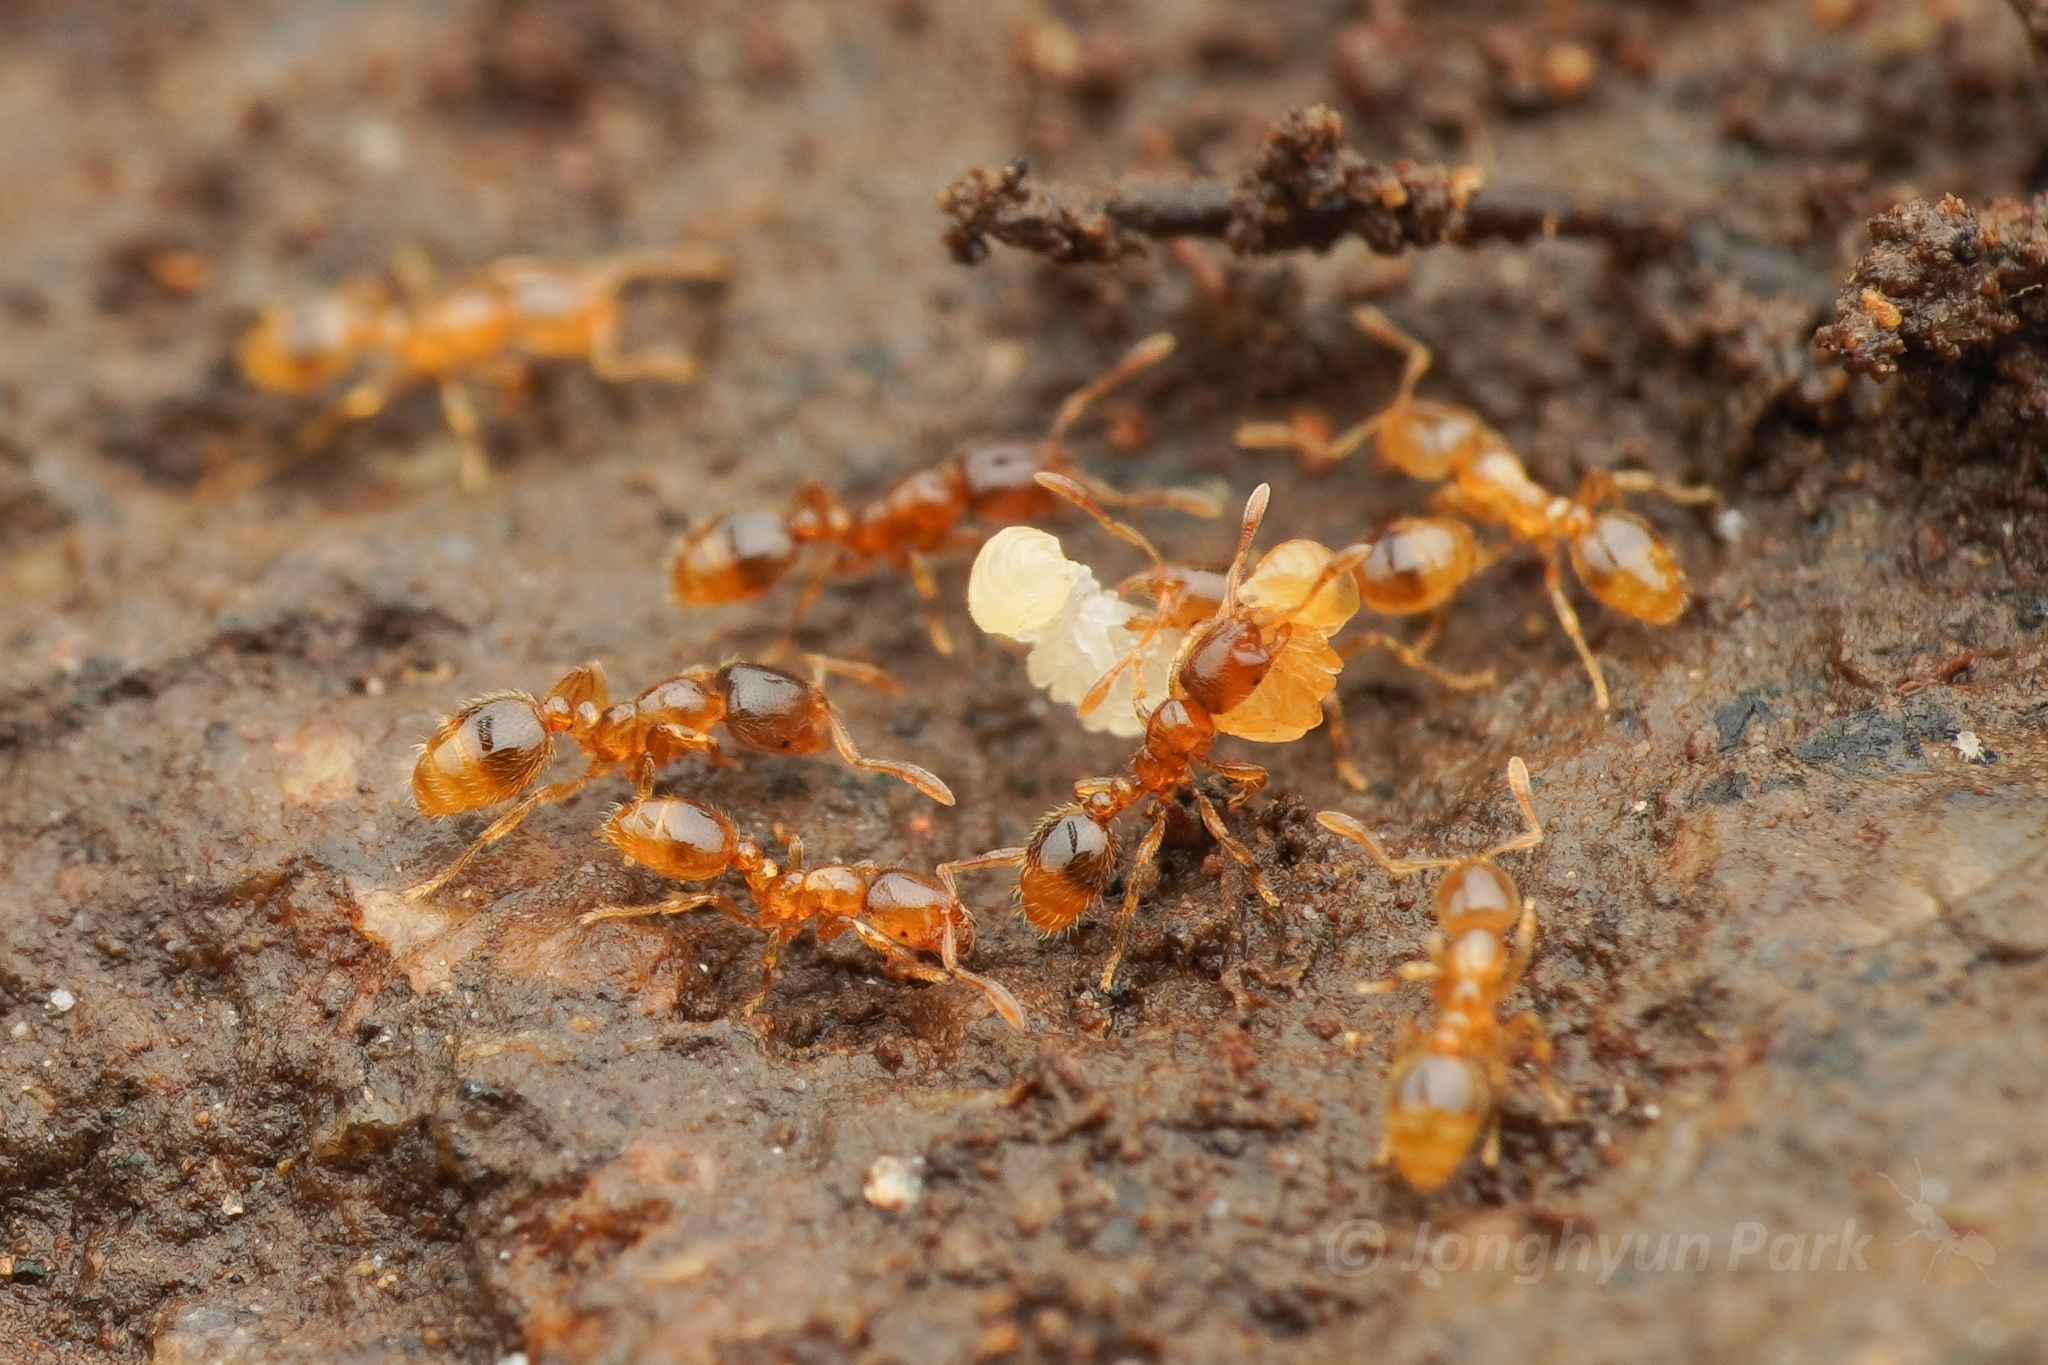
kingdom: Animalia
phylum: Arthropoda
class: Insecta
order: Hymenoptera
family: Formicidae
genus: Solenopsis
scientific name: Solenopsis japonica
